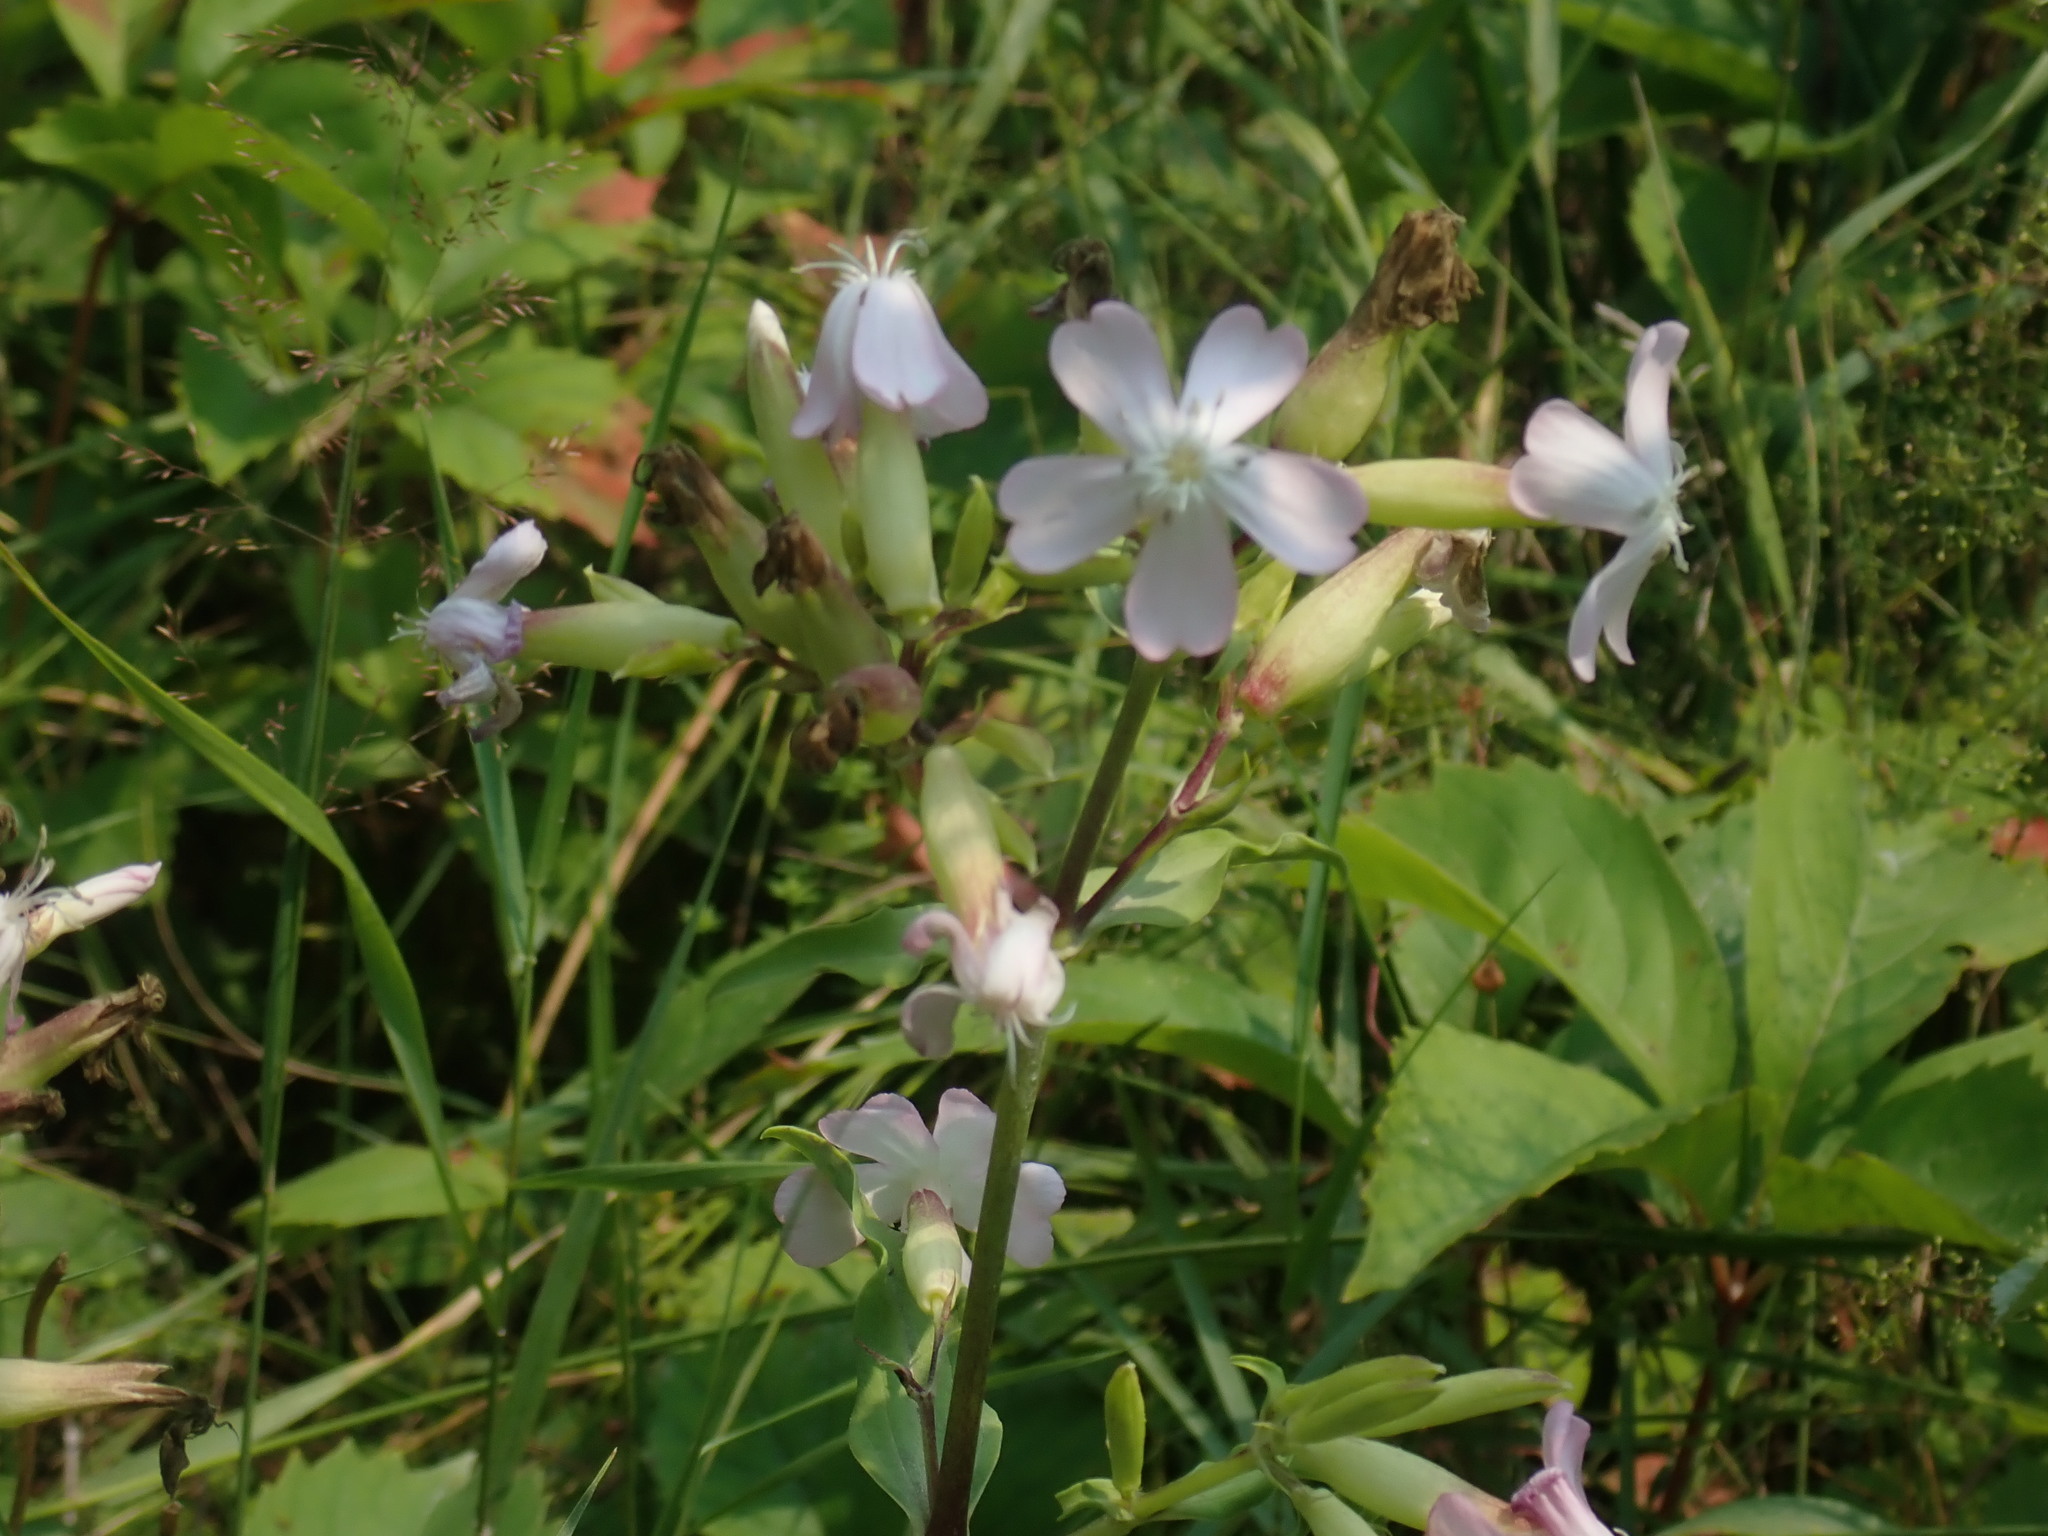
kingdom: Plantae
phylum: Tracheophyta
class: Magnoliopsida
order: Caryophyllales
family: Caryophyllaceae
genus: Saponaria
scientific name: Saponaria officinalis
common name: Soapwort
